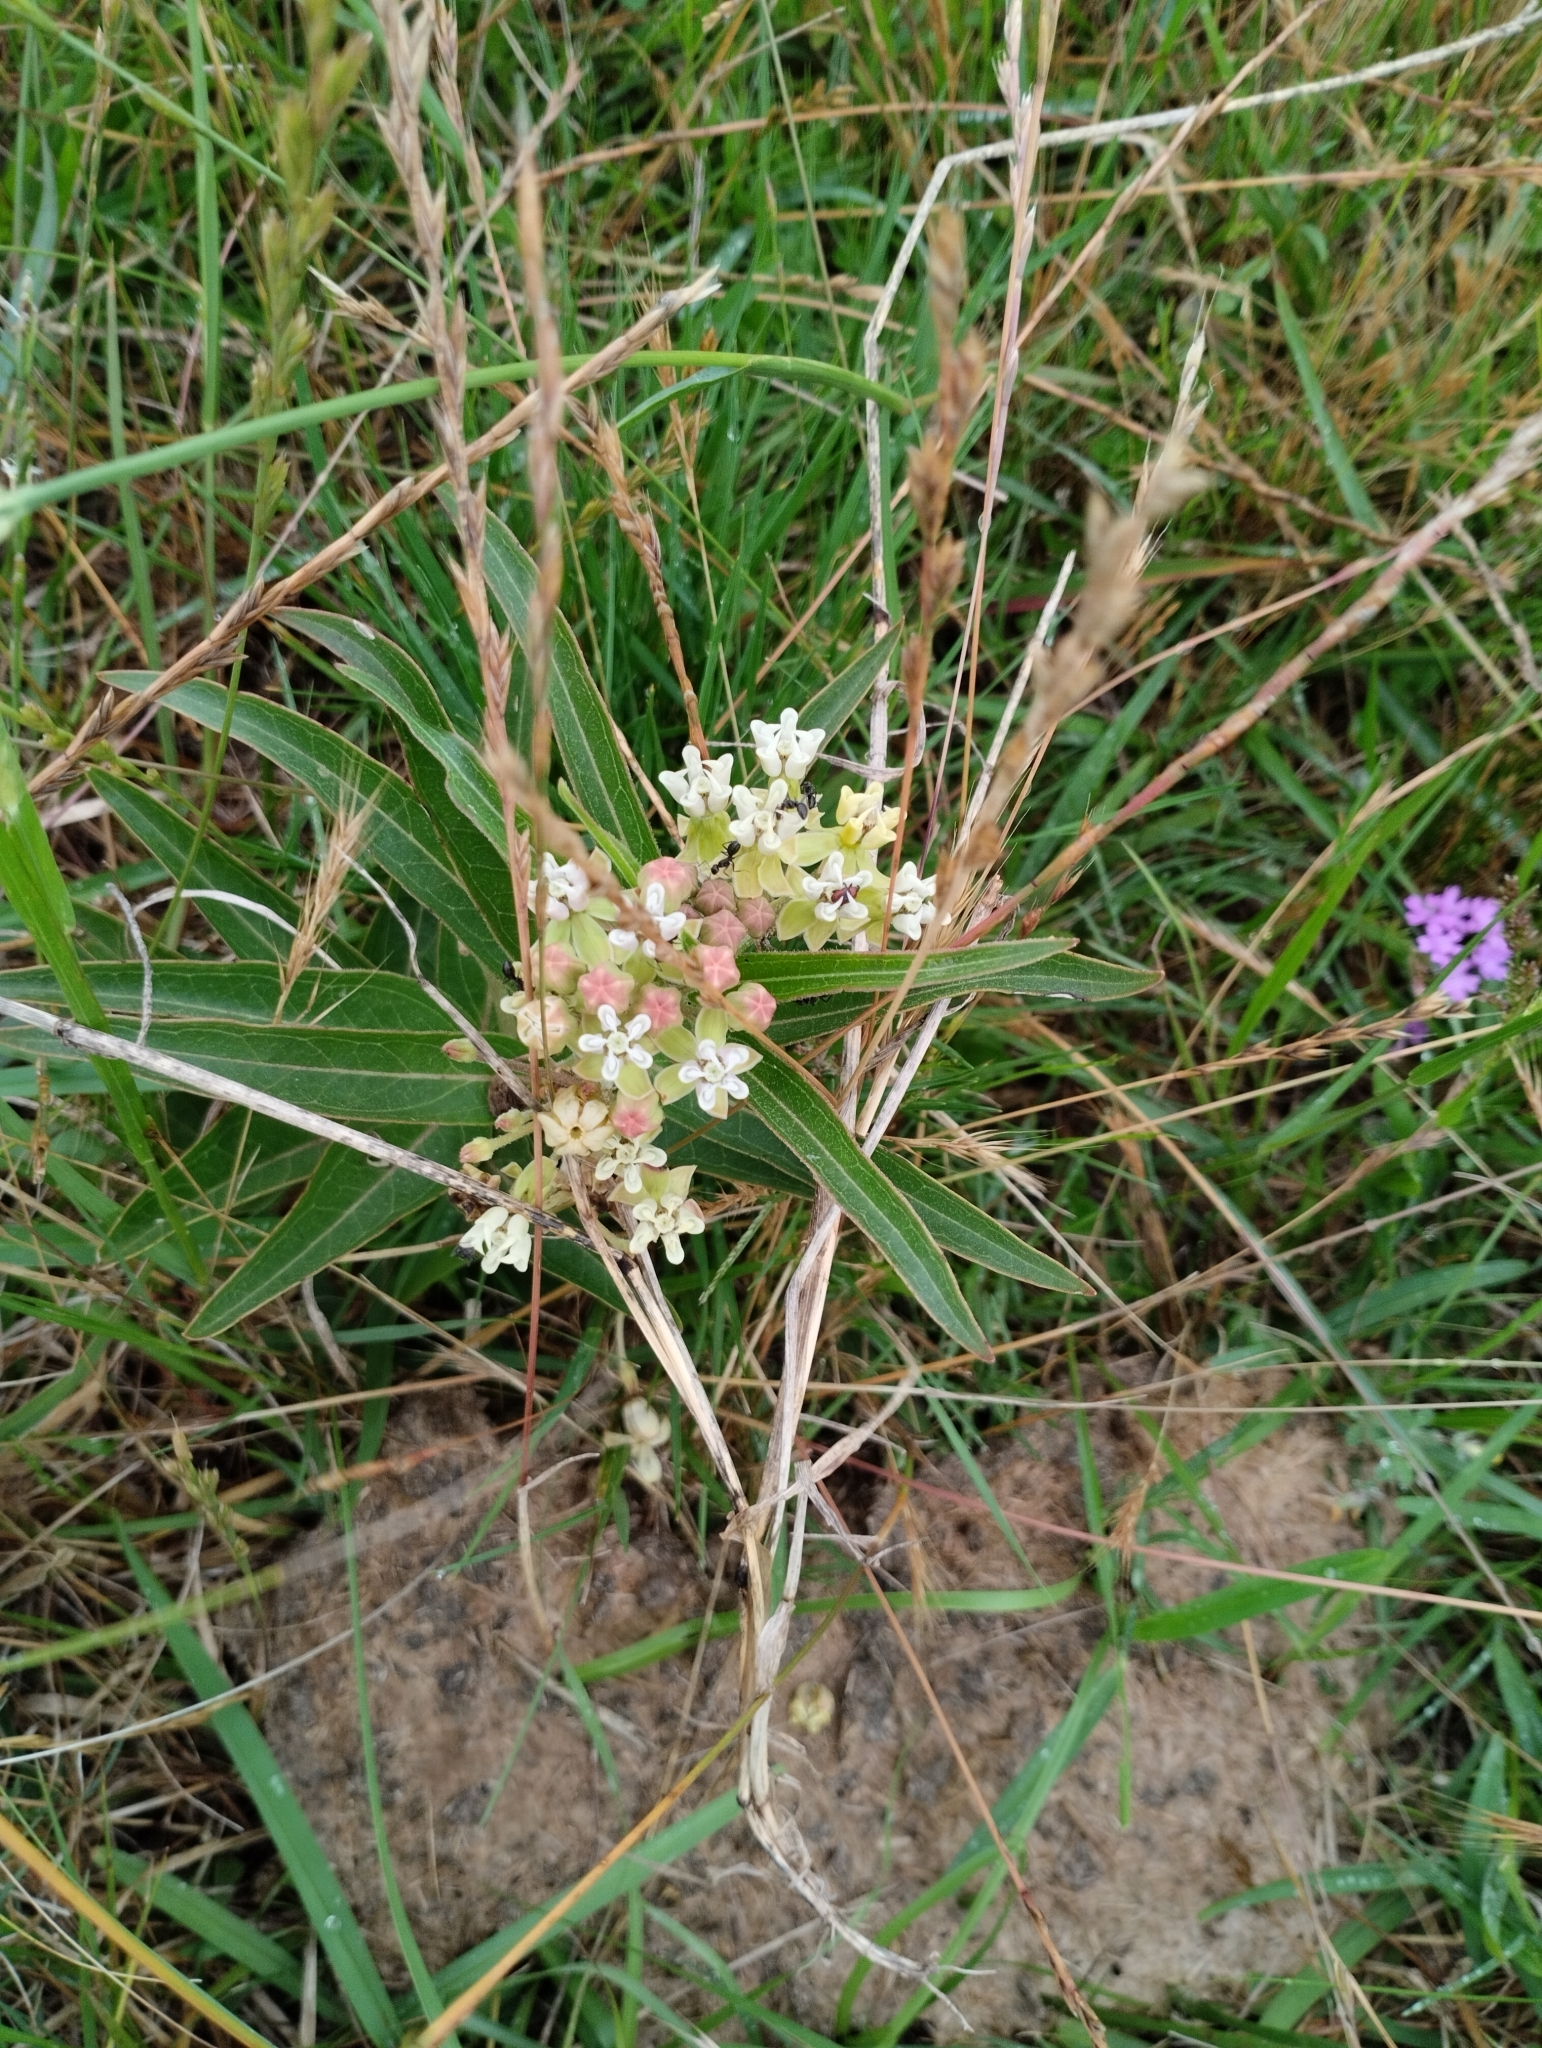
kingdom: Plantae
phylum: Tracheophyta
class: Magnoliopsida
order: Gentianales
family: Apocynaceae
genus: Asclepias
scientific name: Asclepias mellodora
